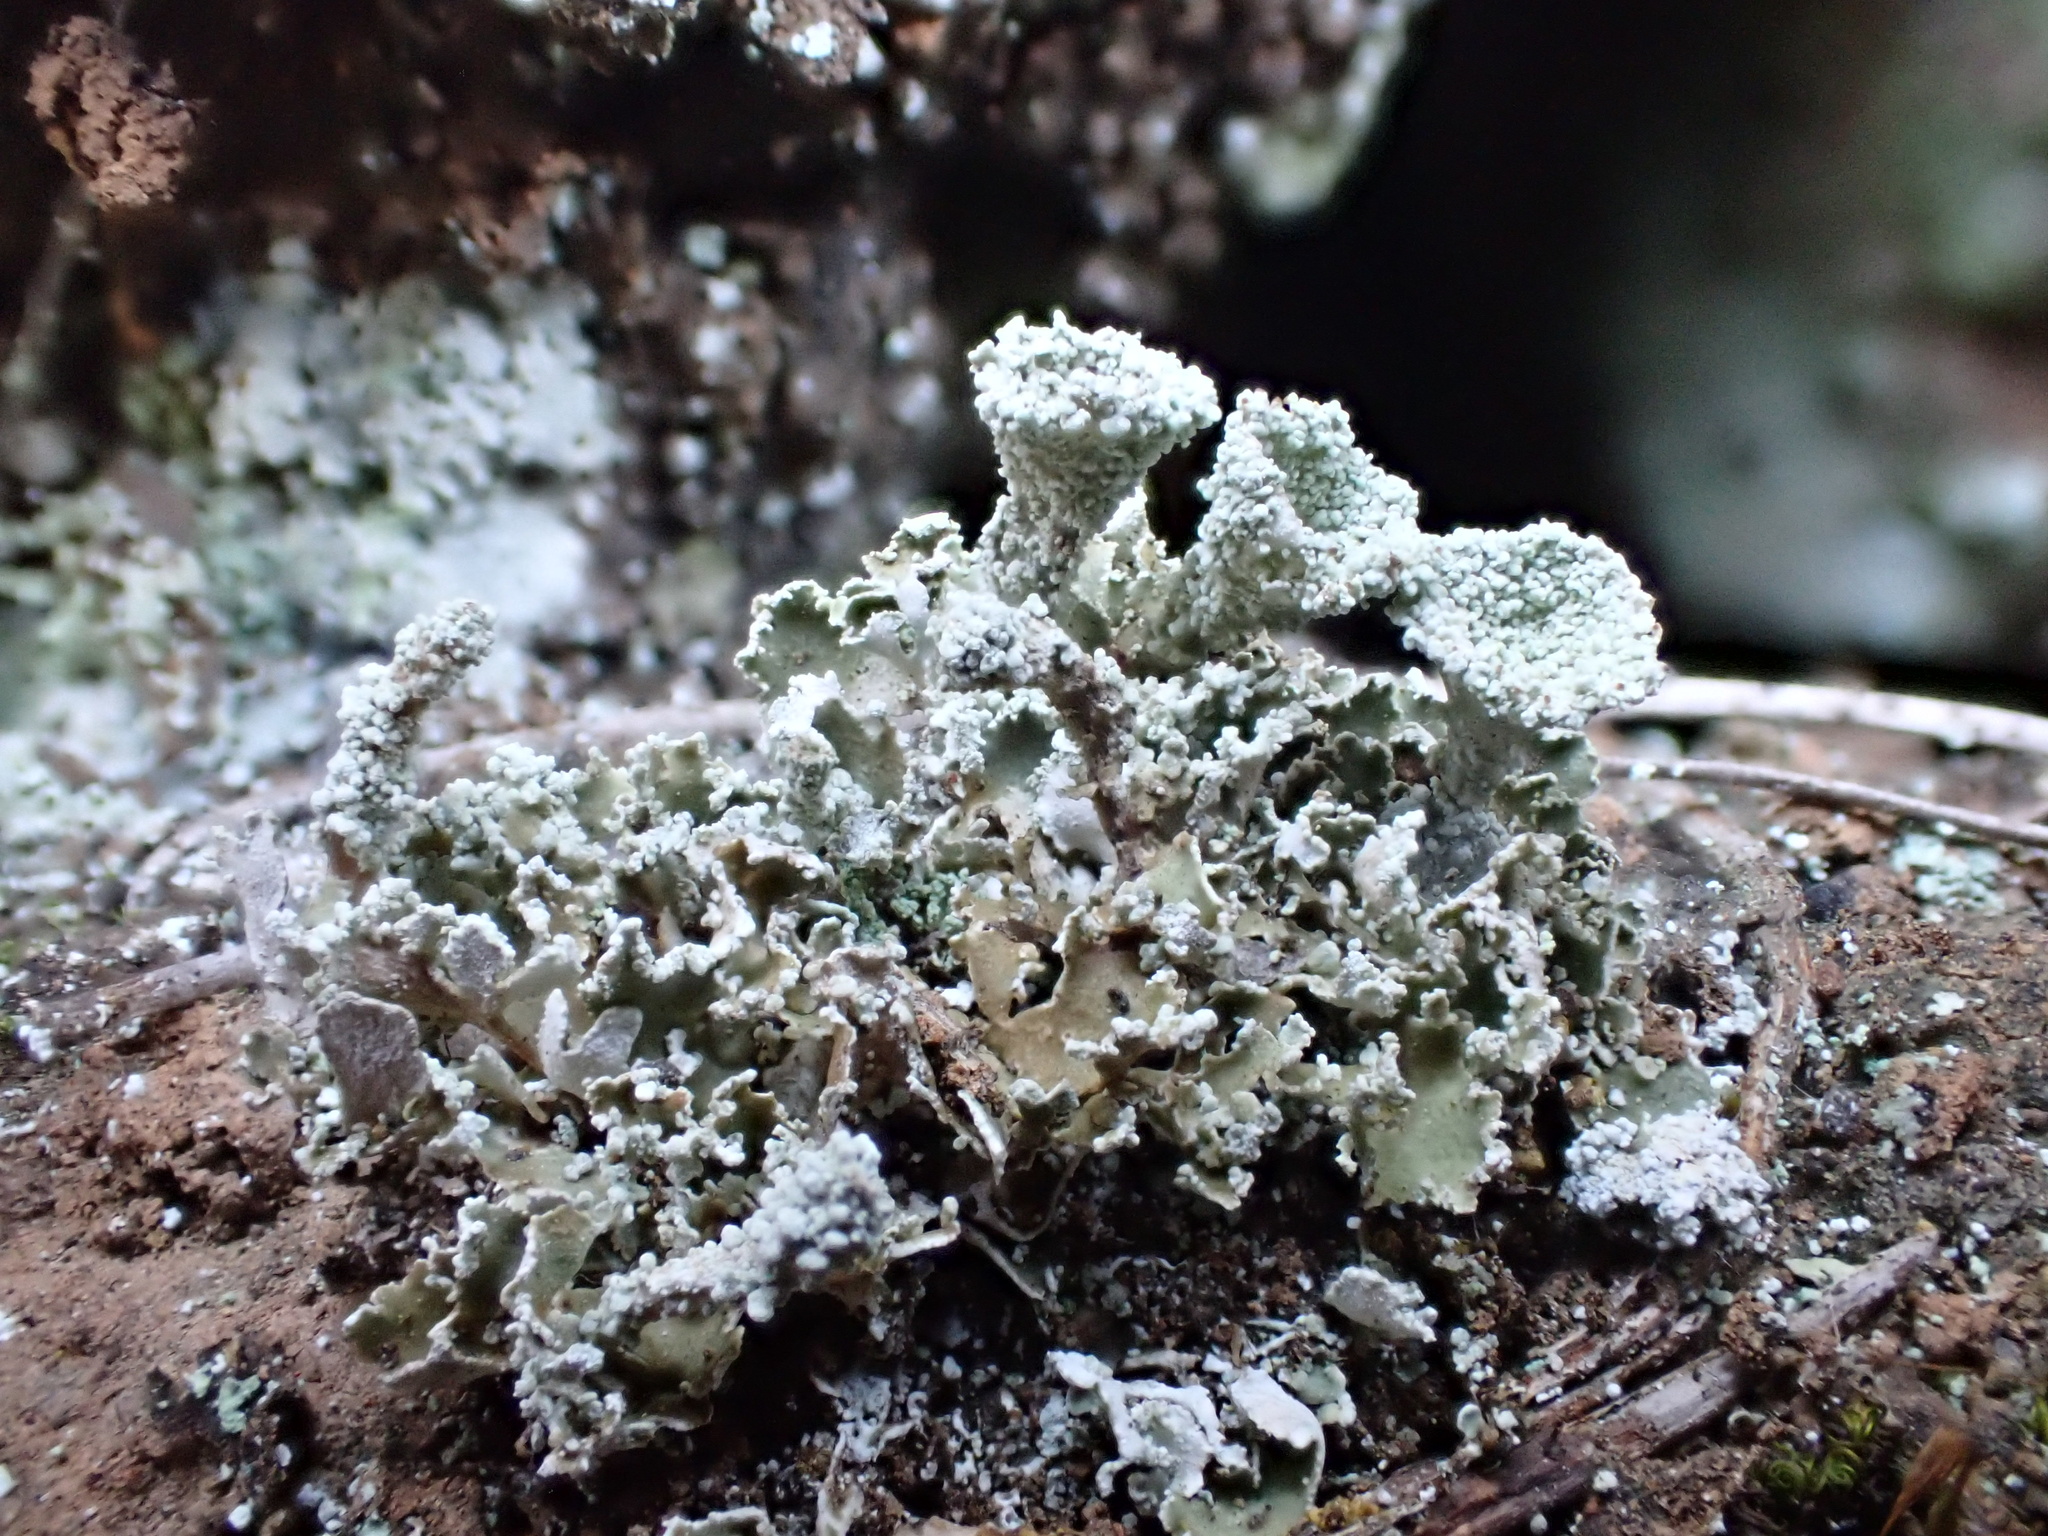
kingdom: Fungi
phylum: Ascomycota
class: Lecanoromycetes
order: Lecanorales
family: Cladoniaceae
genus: Cladonia
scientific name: Cladonia pyxidata
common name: Pebbled pixie cup
